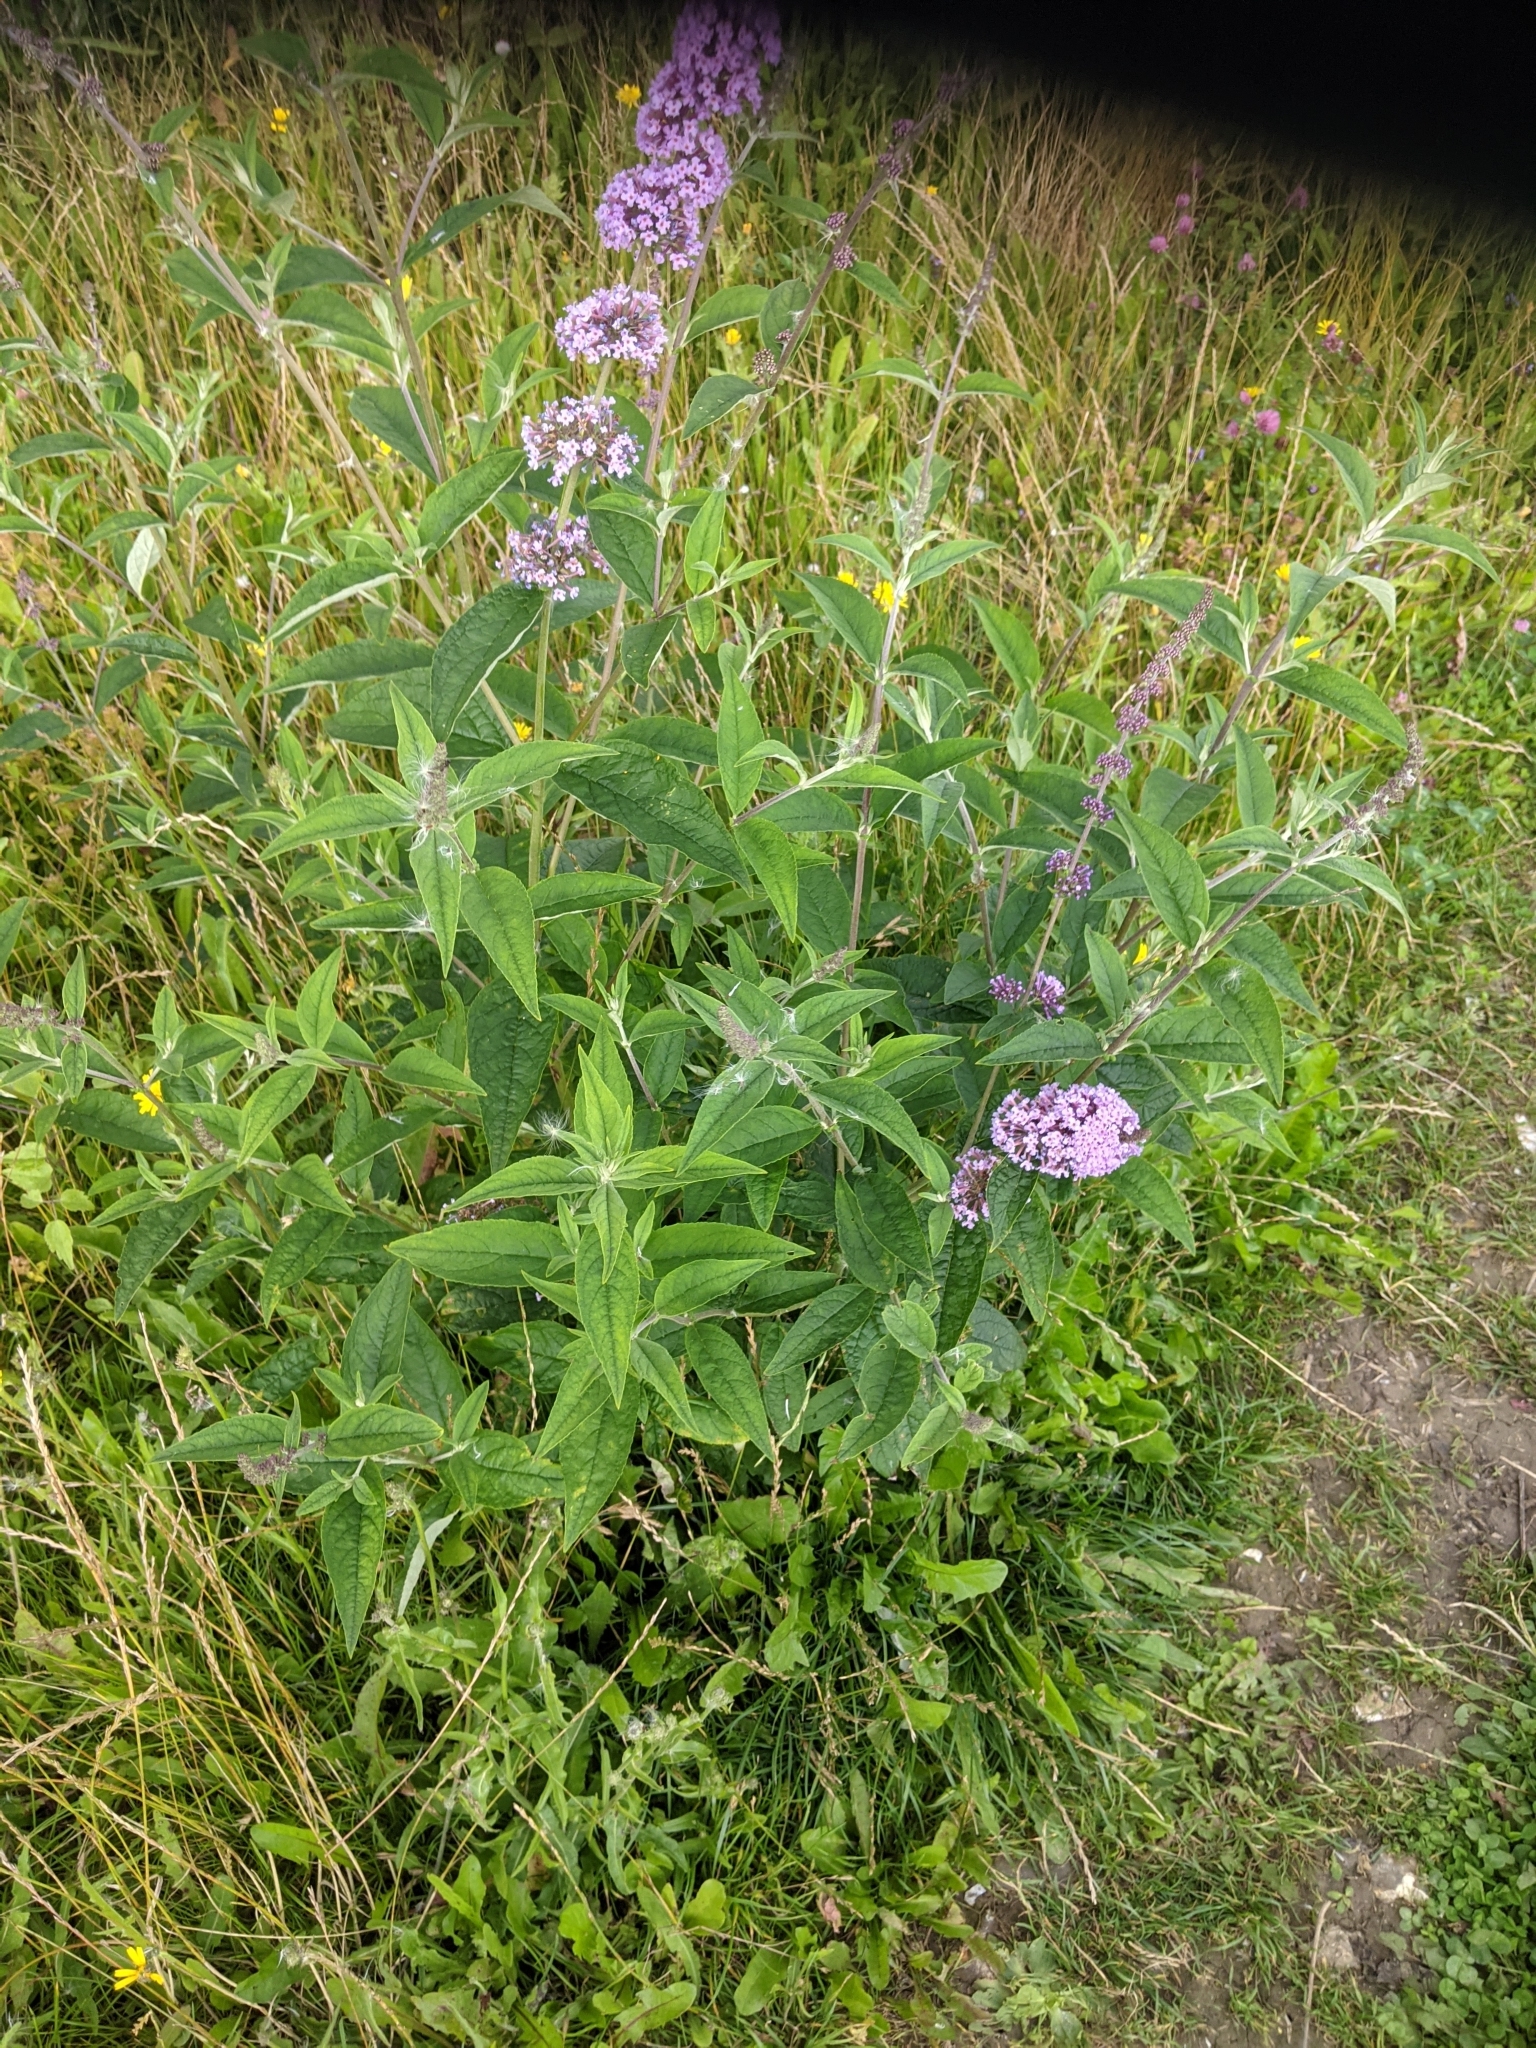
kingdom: Plantae
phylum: Tracheophyta
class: Magnoliopsida
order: Lamiales
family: Scrophulariaceae
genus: Buddleja
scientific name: Buddleja davidii
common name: Butterfly-bush
